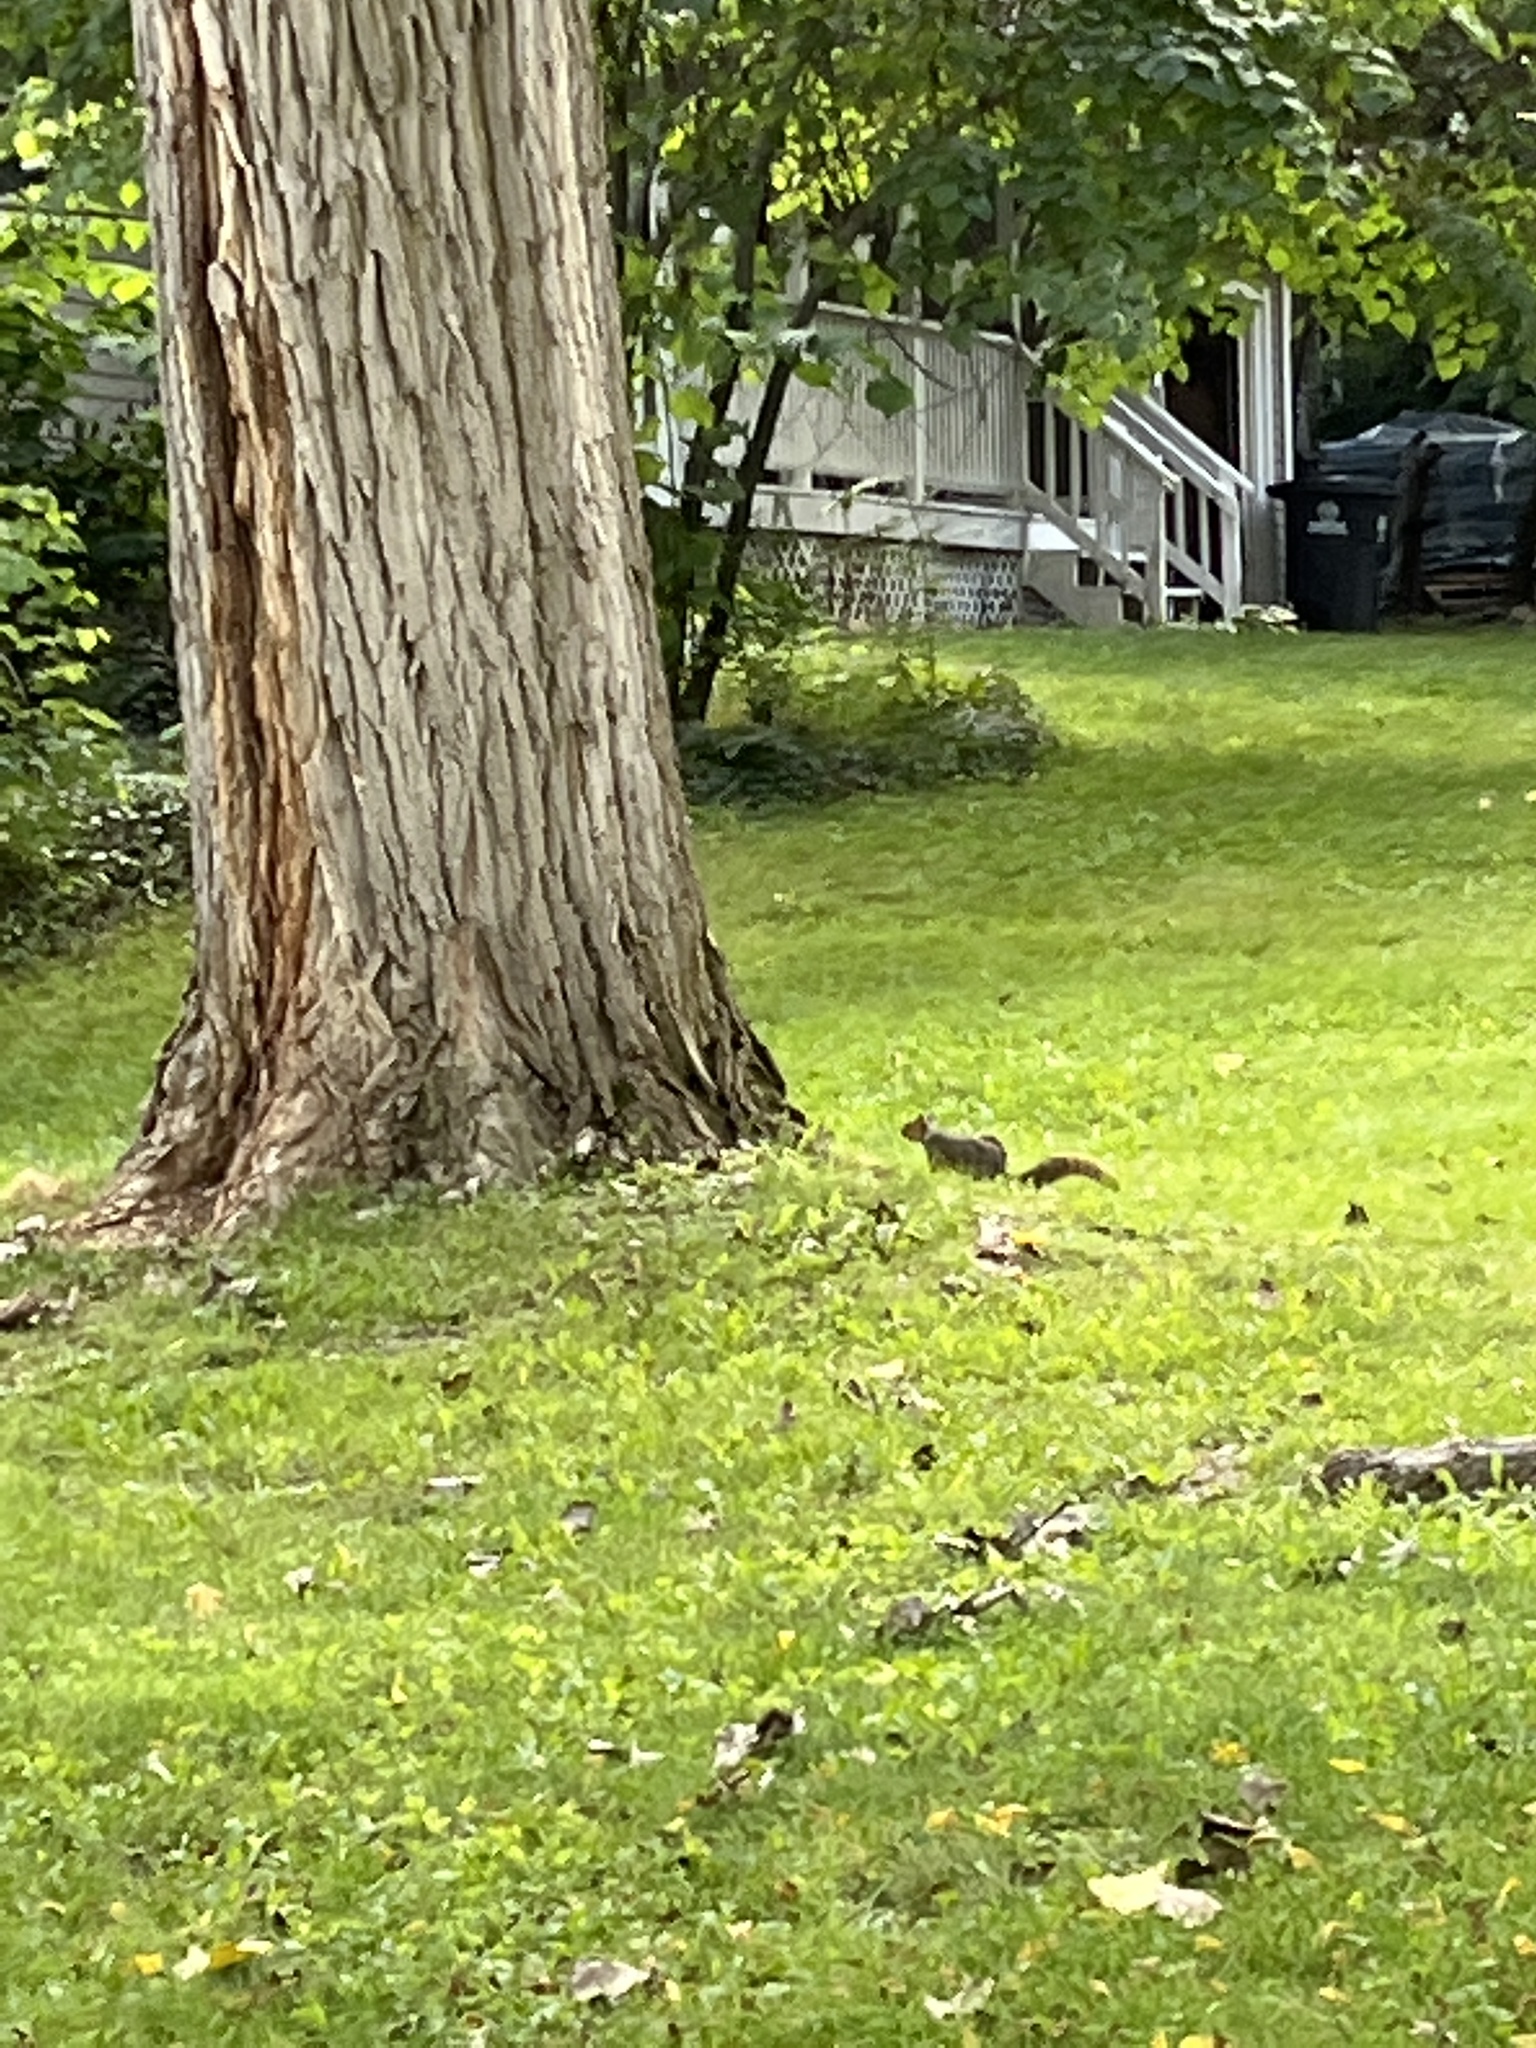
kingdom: Animalia
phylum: Chordata
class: Mammalia
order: Rodentia
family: Sciuridae
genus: Sciurus
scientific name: Sciurus niger
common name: Fox squirrel
